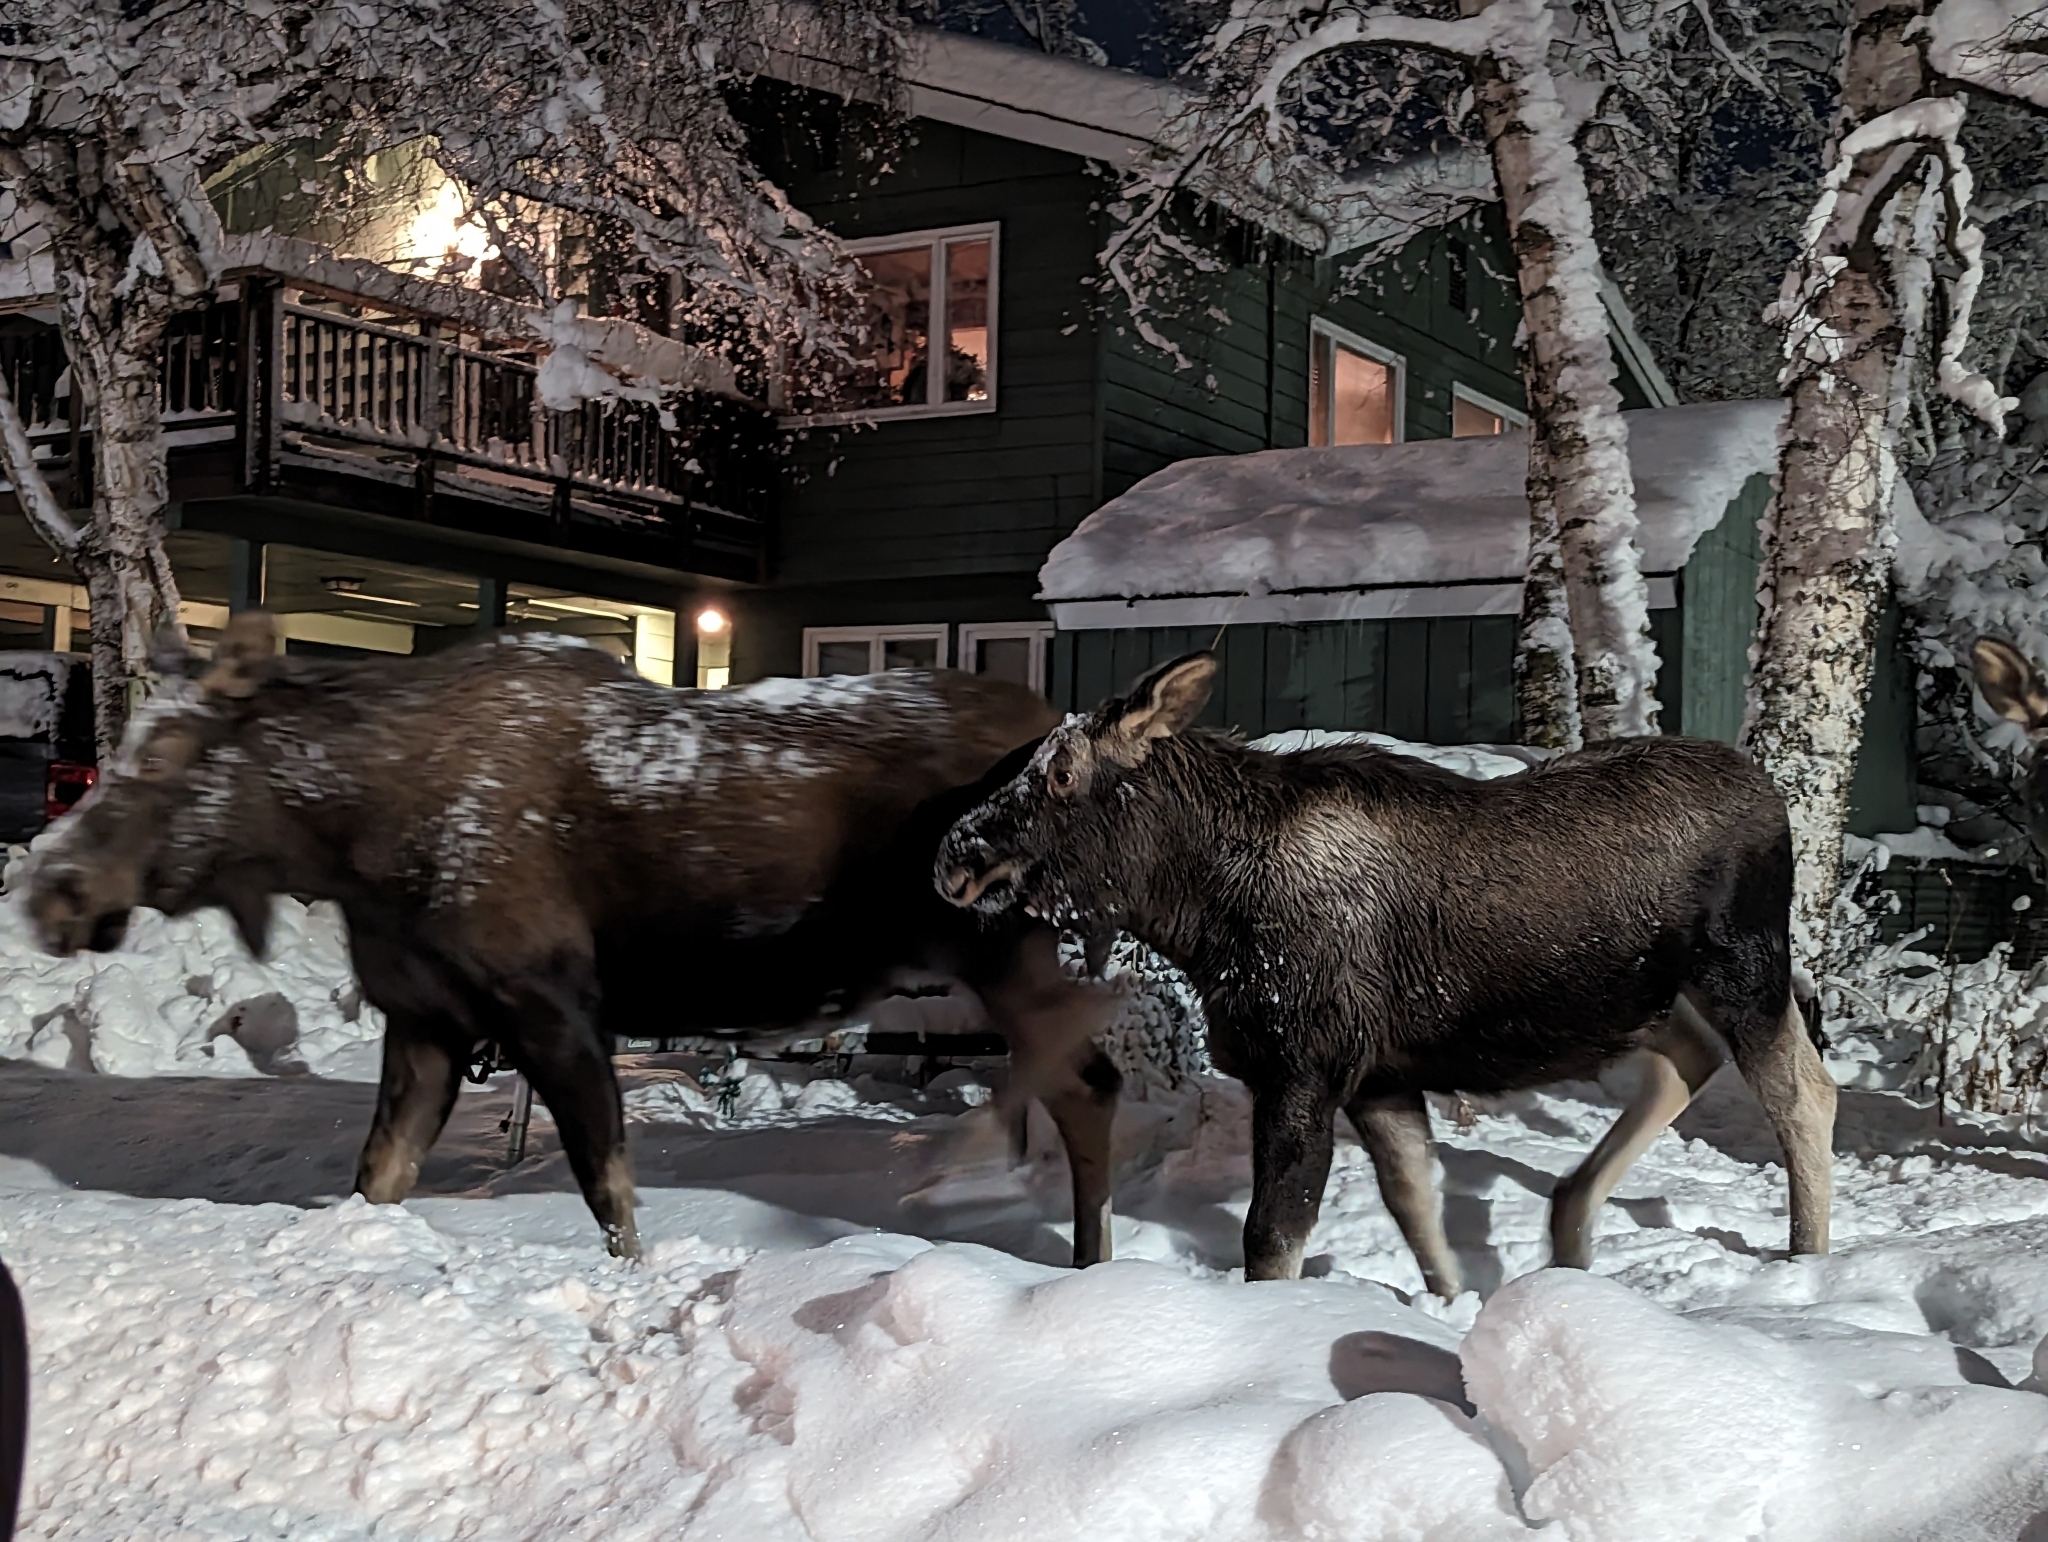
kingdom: Animalia
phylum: Chordata
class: Mammalia
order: Artiodactyla
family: Cervidae
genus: Alces
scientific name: Alces alces
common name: Moose
